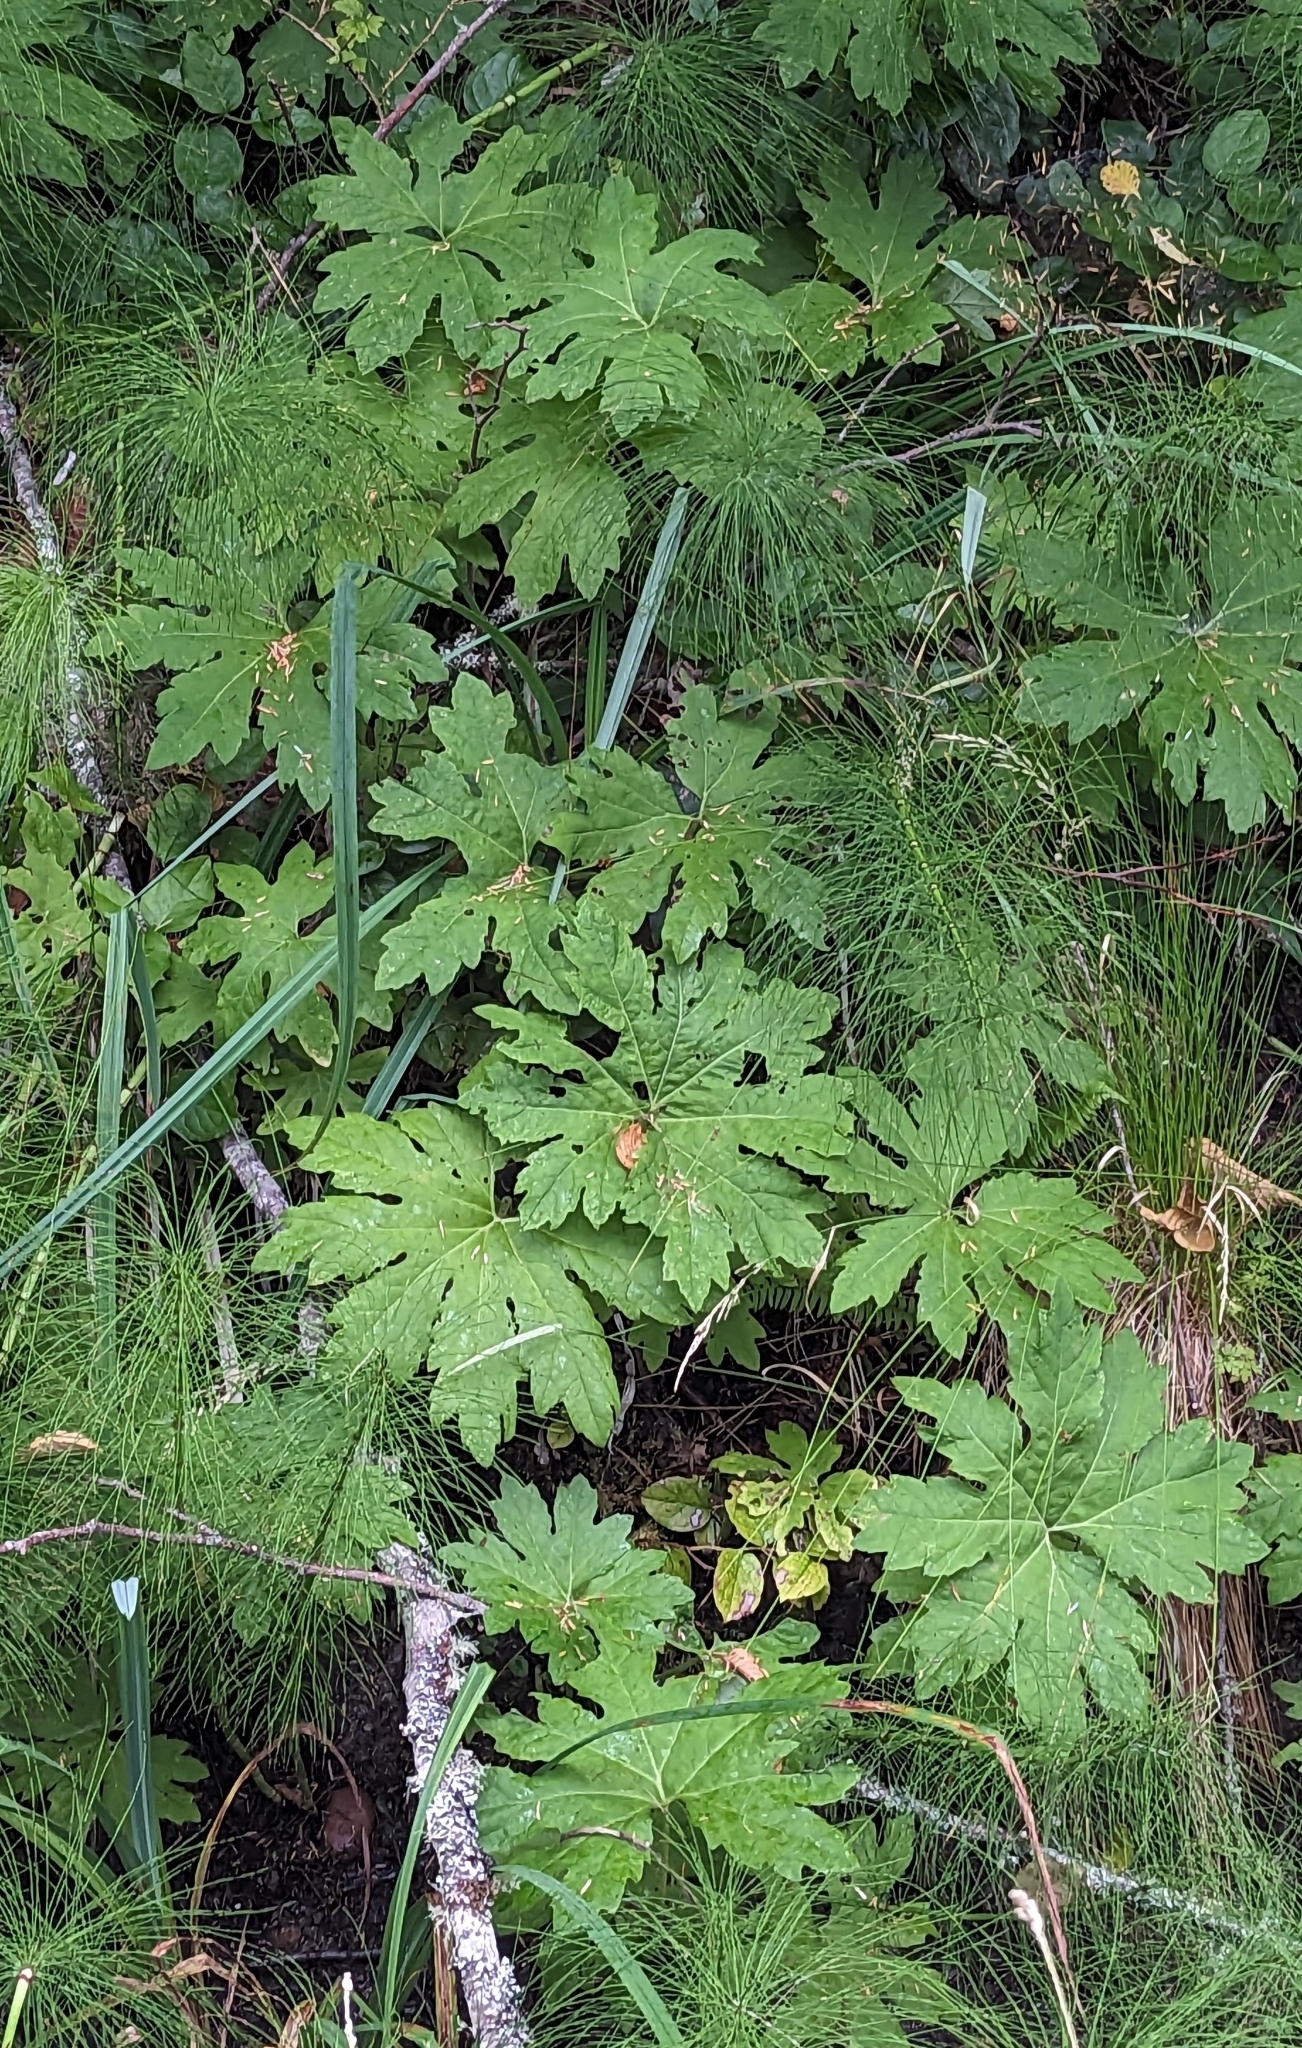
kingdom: Plantae
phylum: Tracheophyta
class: Magnoliopsida
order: Asterales
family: Asteraceae
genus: Petasites
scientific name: Petasites frigidus
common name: Arctic butterbur
